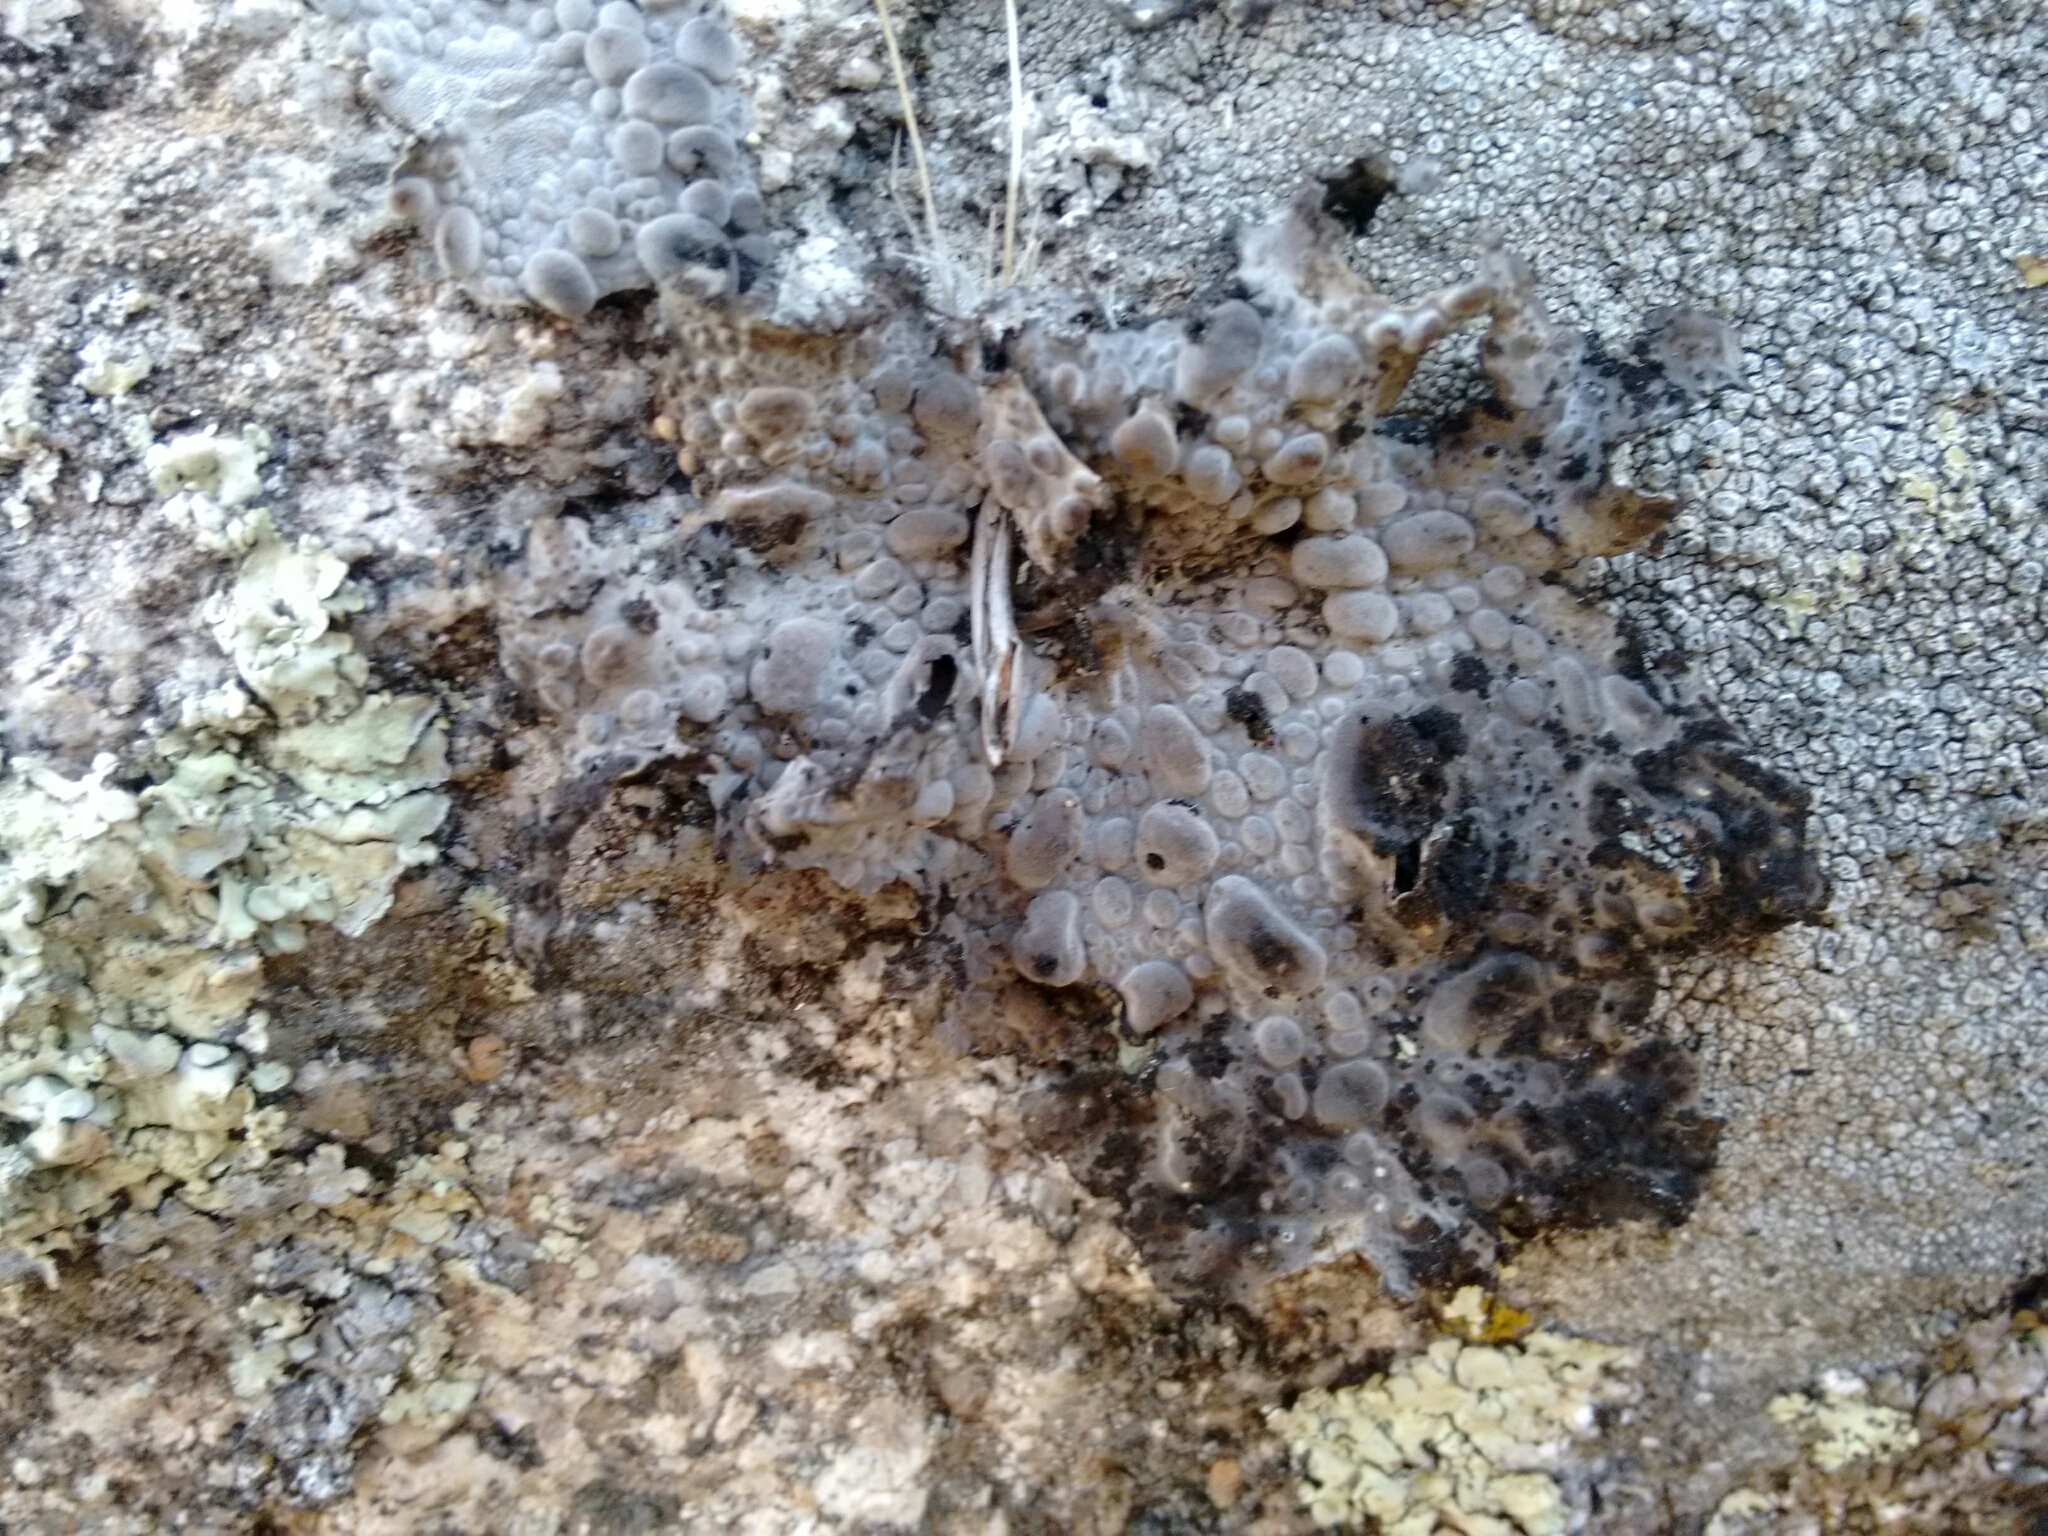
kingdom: Fungi
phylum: Ascomycota
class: Lecanoromycetes
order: Umbilicariales
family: Umbilicariaceae
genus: Lasallia
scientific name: Lasallia pustulata
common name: Blistered toadskin lichen
